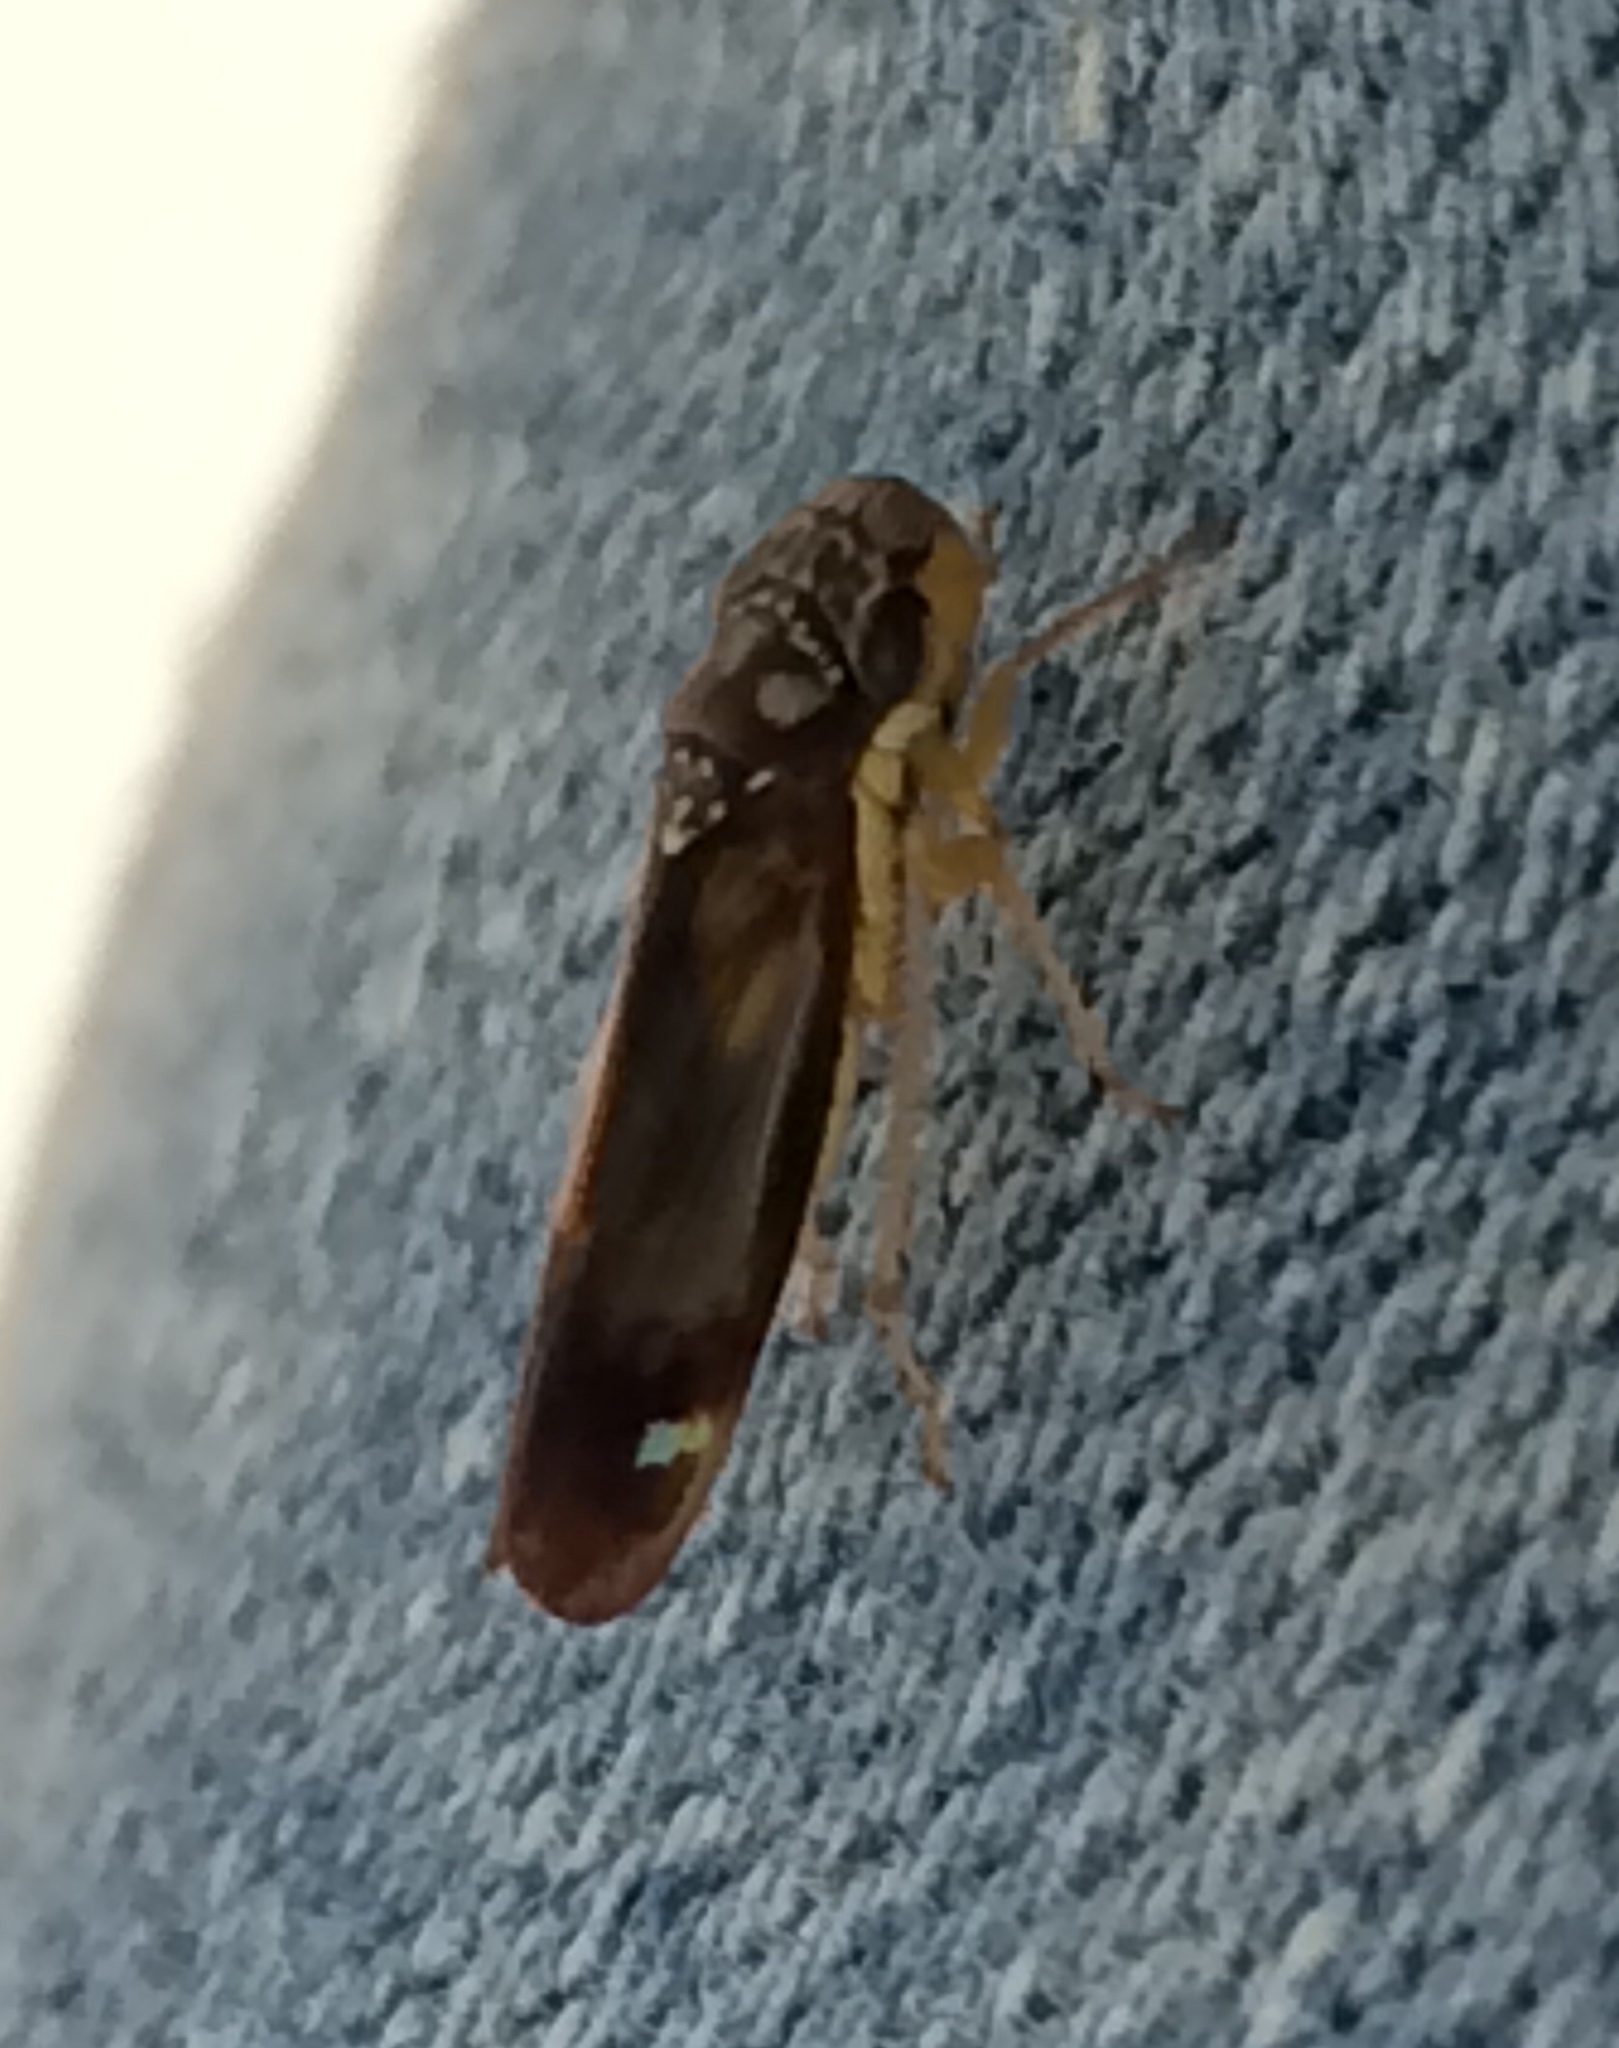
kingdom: Animalia
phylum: Arthropoda
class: Insecta
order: Hemiptera
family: Cicadellidae
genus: Dilobopterus
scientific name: Dilobopterus disparulus
